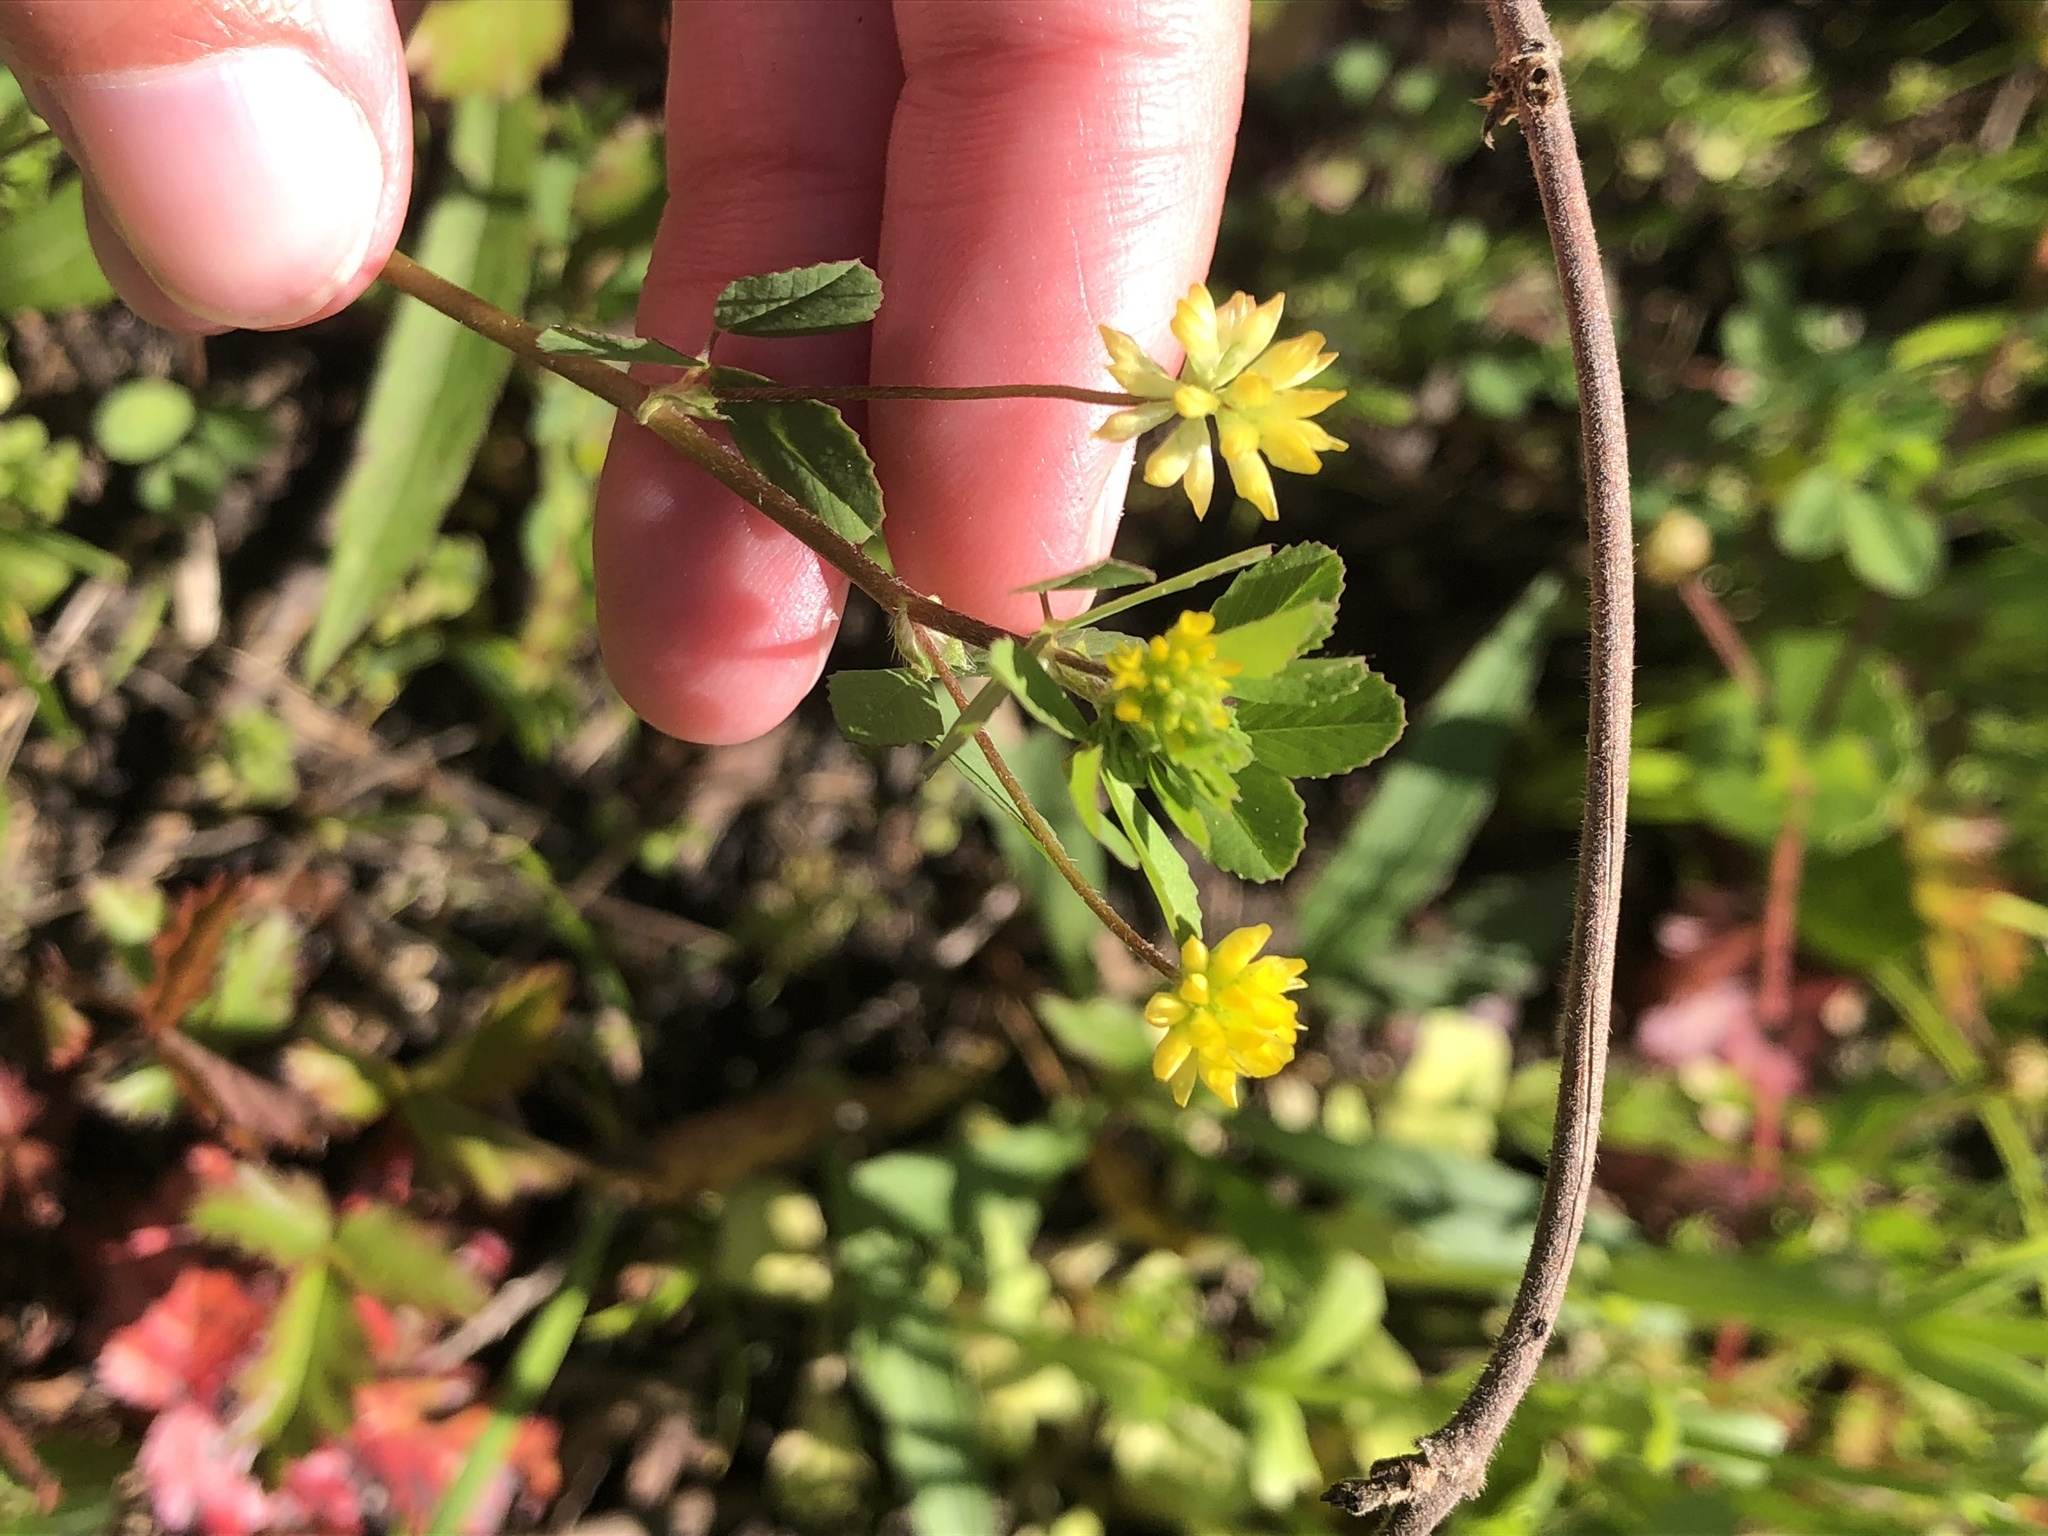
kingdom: Plantae
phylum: Tracheophyta
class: Magnoliopsida
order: Fabales
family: Fabaceae
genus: Trifolium
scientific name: Trifolium dubium
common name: Suckling clover
